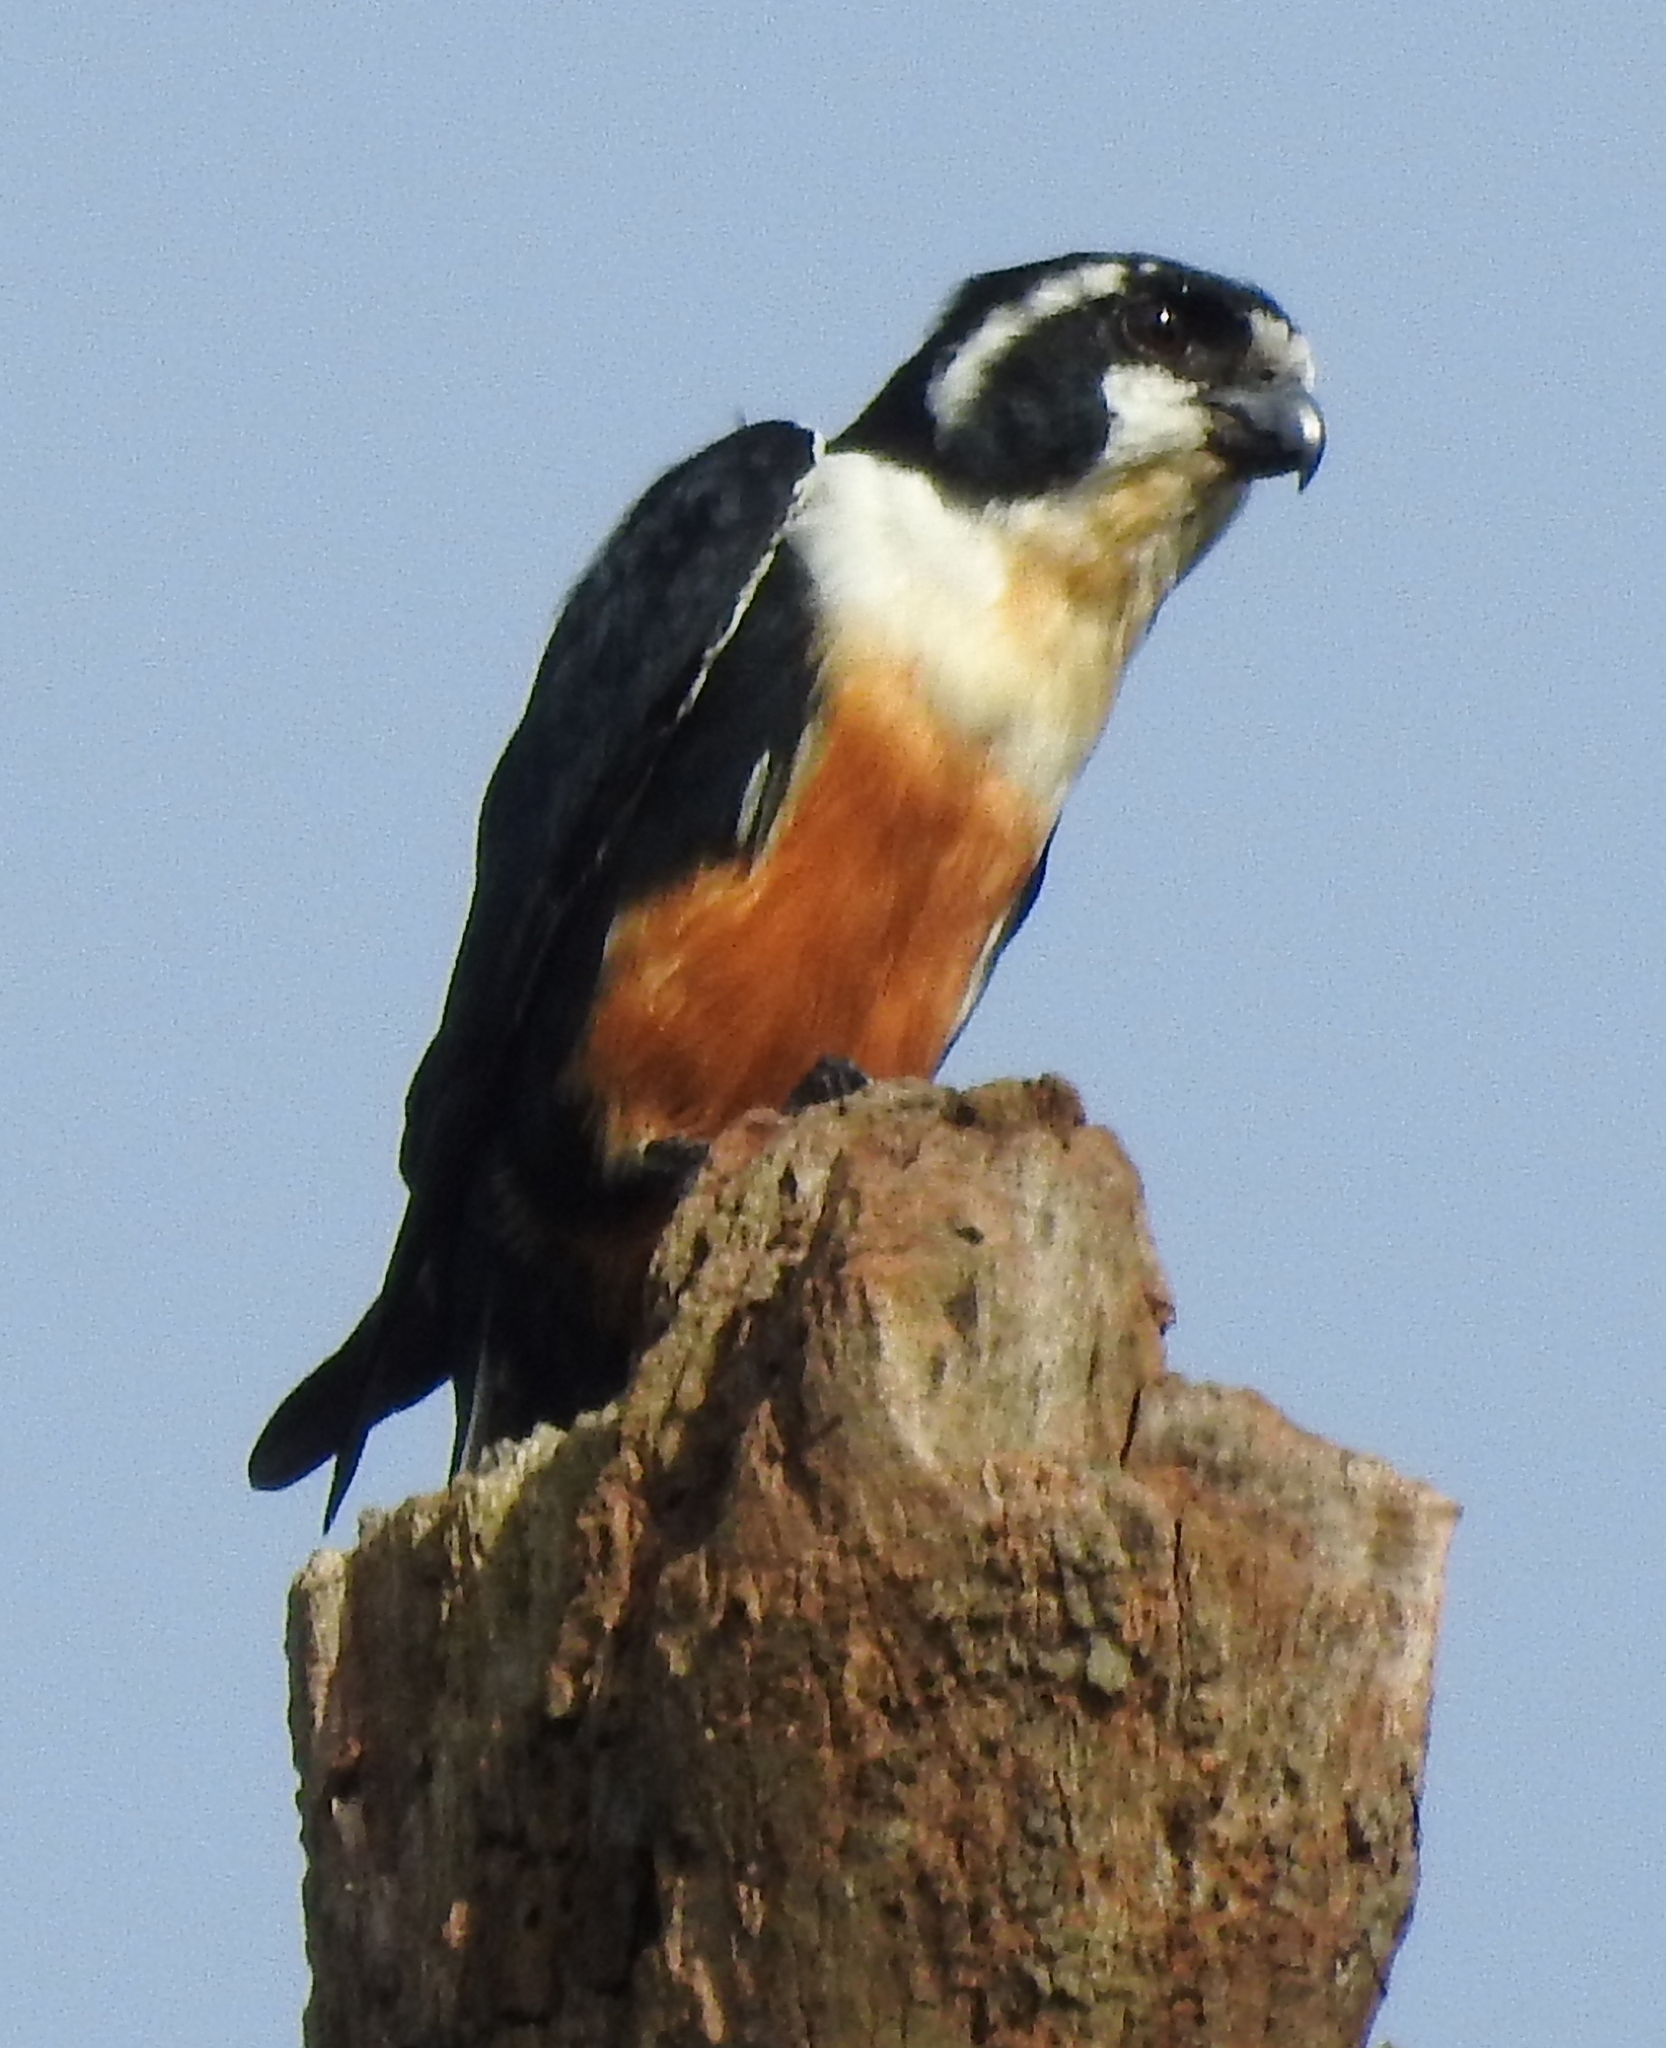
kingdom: Animalia
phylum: Chordata
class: Aves
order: Falconiformes
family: Falconidae
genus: Microhierax
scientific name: Microhierax fringillarius
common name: Black-thighed falconet
